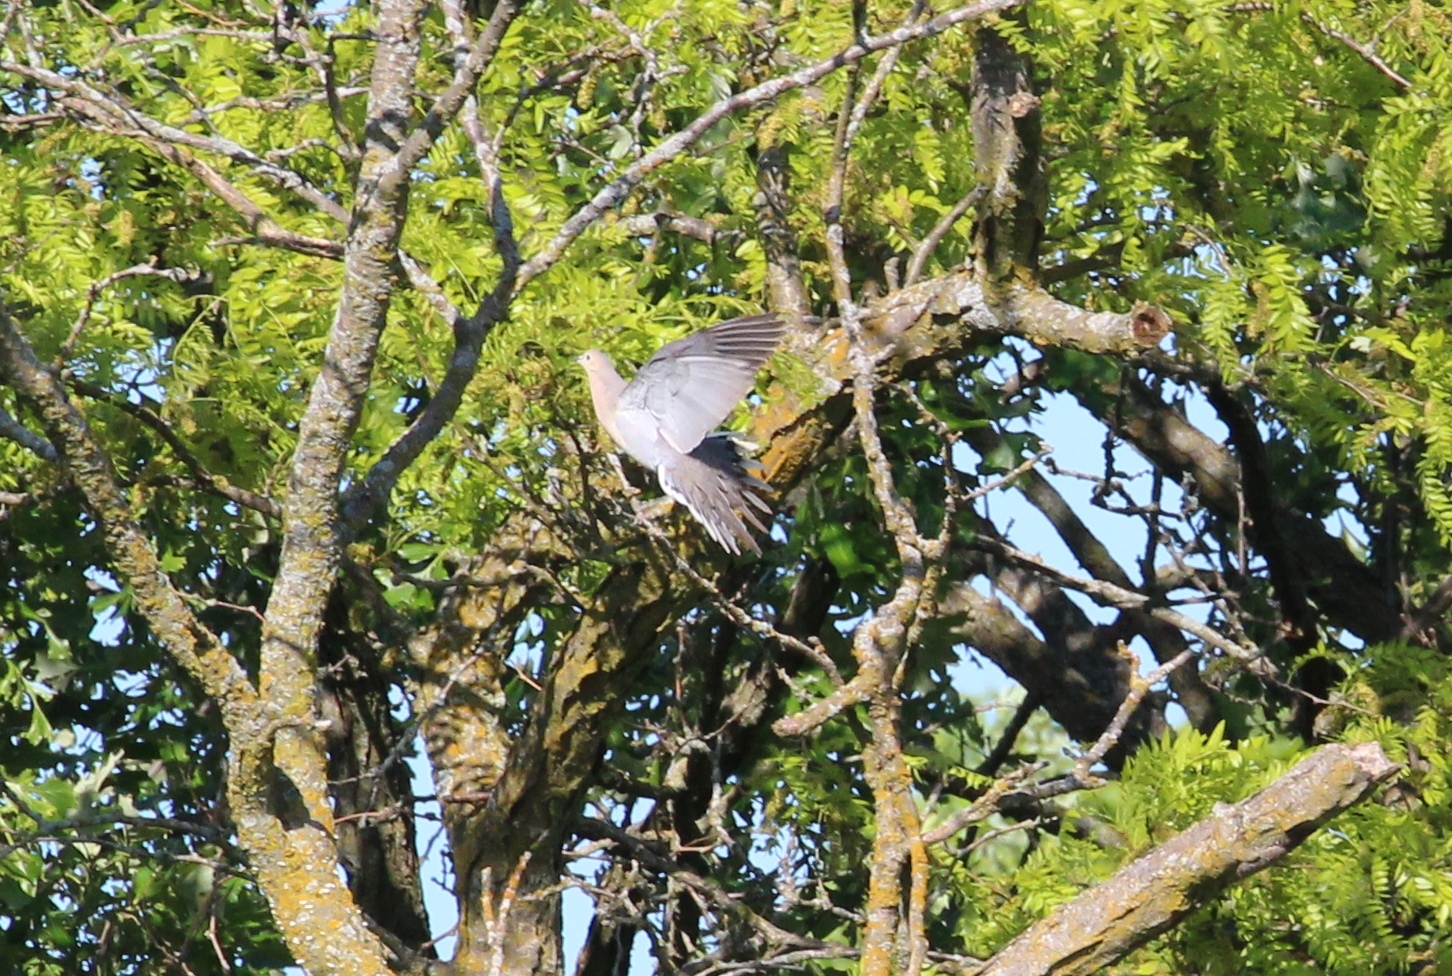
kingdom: Animalia
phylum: Chordata
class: Aves
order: Columbiformes
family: Columbidae
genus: Zenaida
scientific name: Zenaida macroura
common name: Mourning dove
